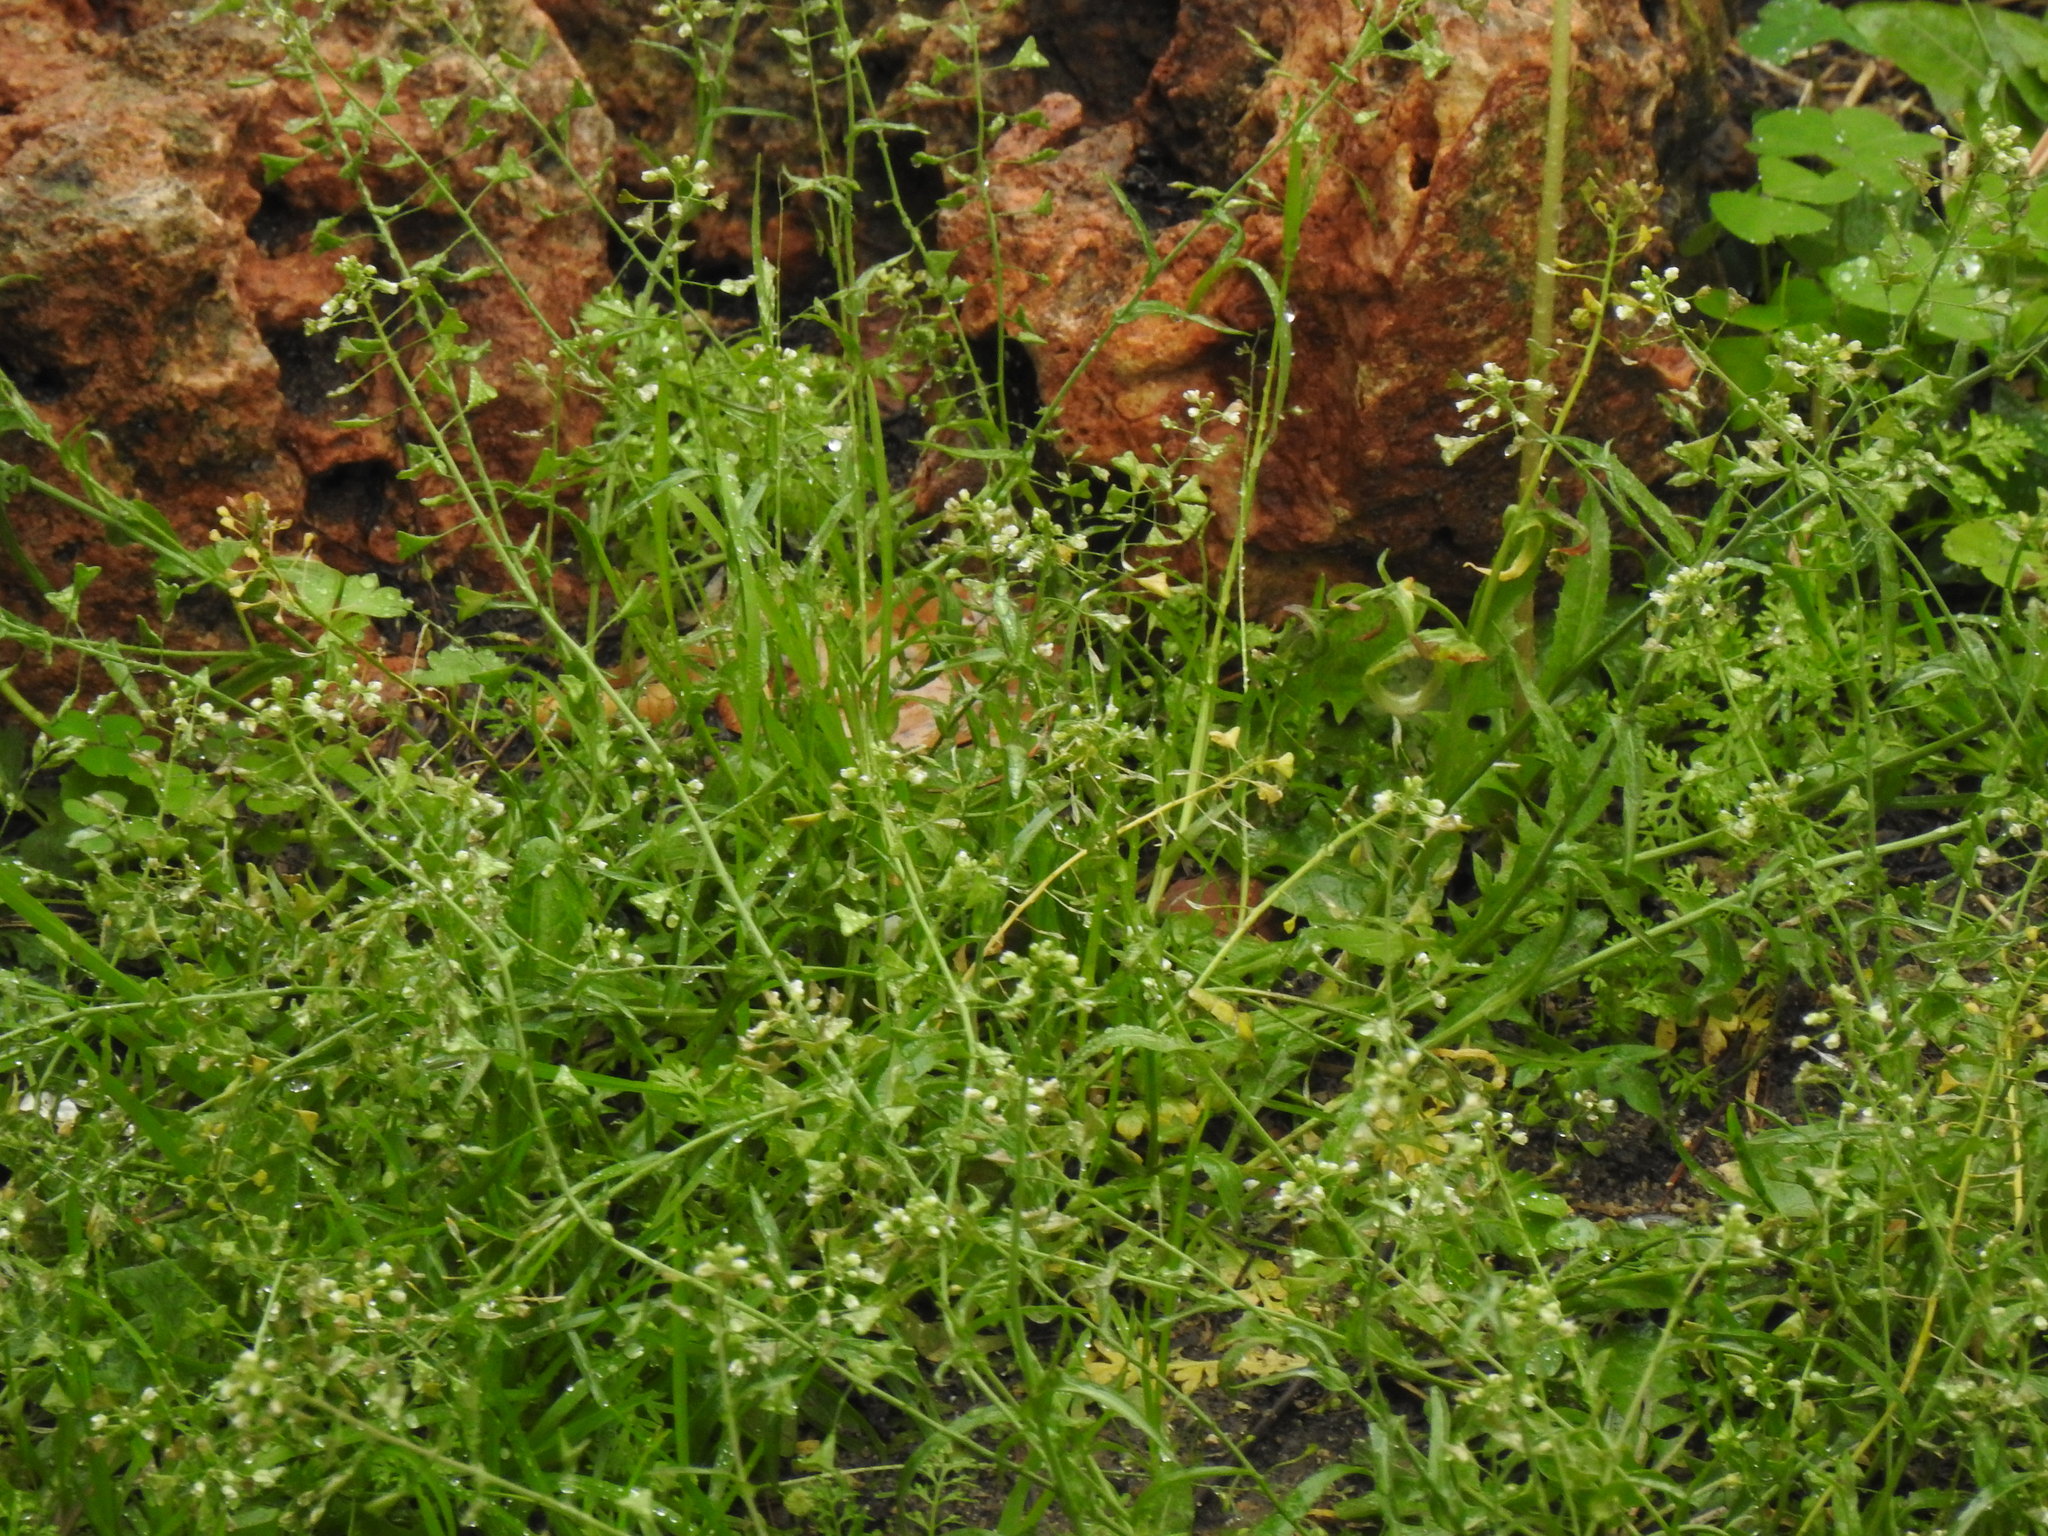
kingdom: Plantae
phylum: Tracheophyta
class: Magnoliopsida
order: Brassicales
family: Brassicaceae
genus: Capsella
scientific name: Capsella bursa-pastoris
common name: Shepherd's purse
